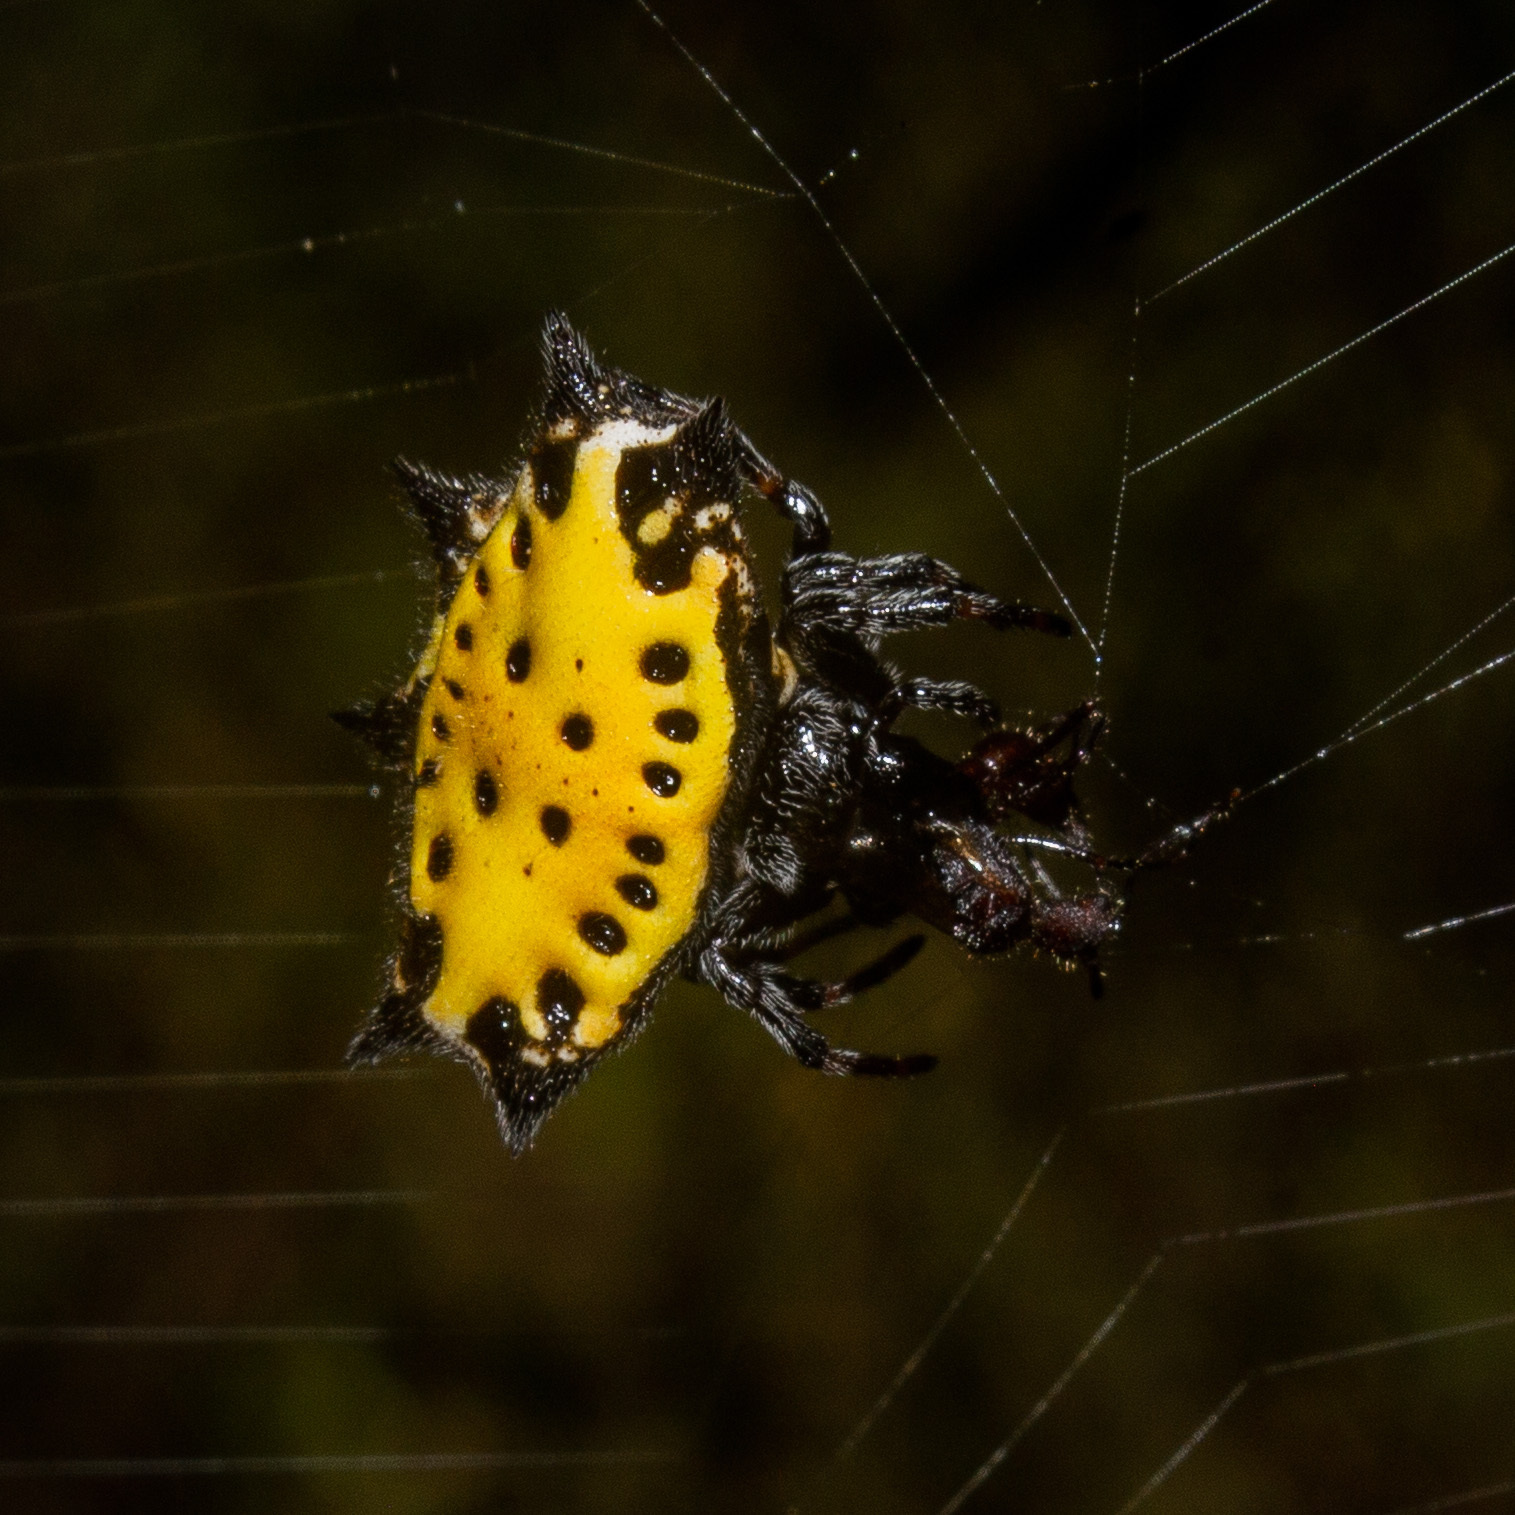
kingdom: Animalia
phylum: Arthropoda
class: Arachnida
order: Araneae
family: Araneidae
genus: Gasteracantha
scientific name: Gasteracantha cancriformis
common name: Orb weavers
